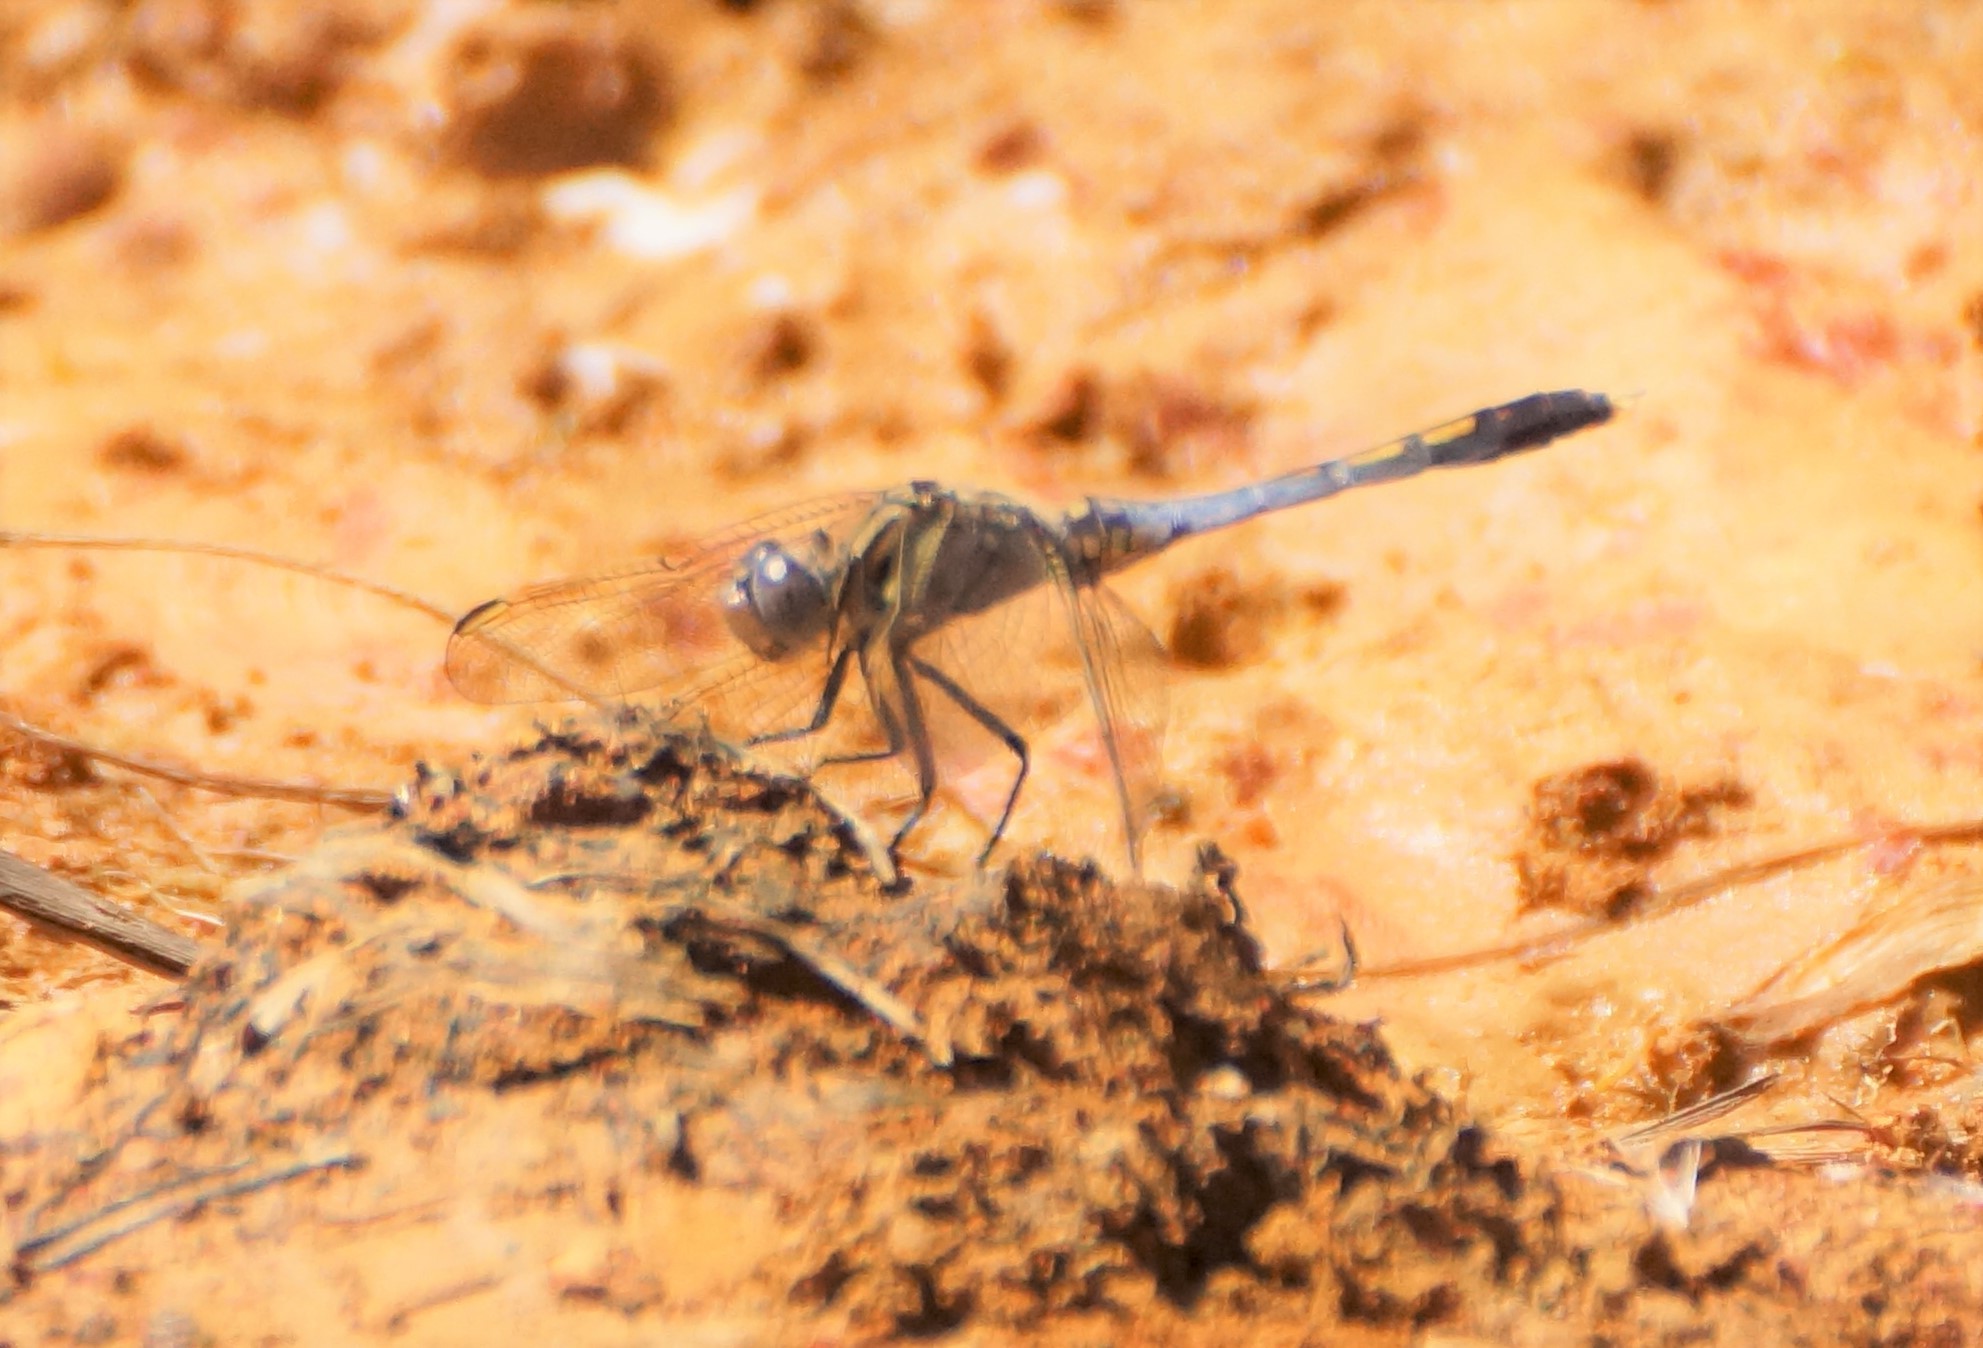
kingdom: Animalia
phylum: Arthropoda
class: Insecta
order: Odonata
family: Libellulidae
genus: Orthetrum
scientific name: Orthetrum caledonicum
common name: Blue skimmer
